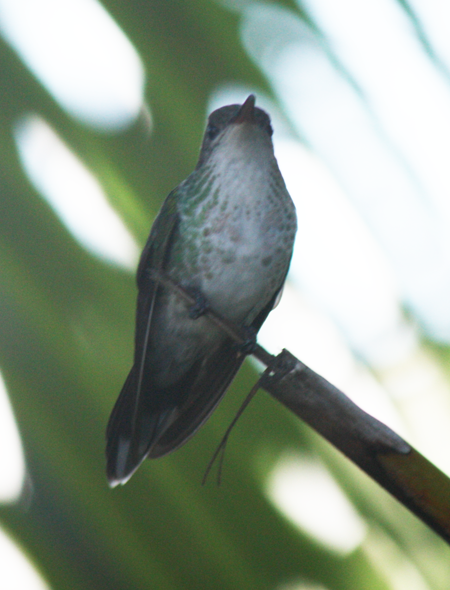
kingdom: Animalia
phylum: Chordata
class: Aves
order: Apodiformes
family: Trochilidae
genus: Trochilus
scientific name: Trochilus polytmus
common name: Red-billed streamertail
